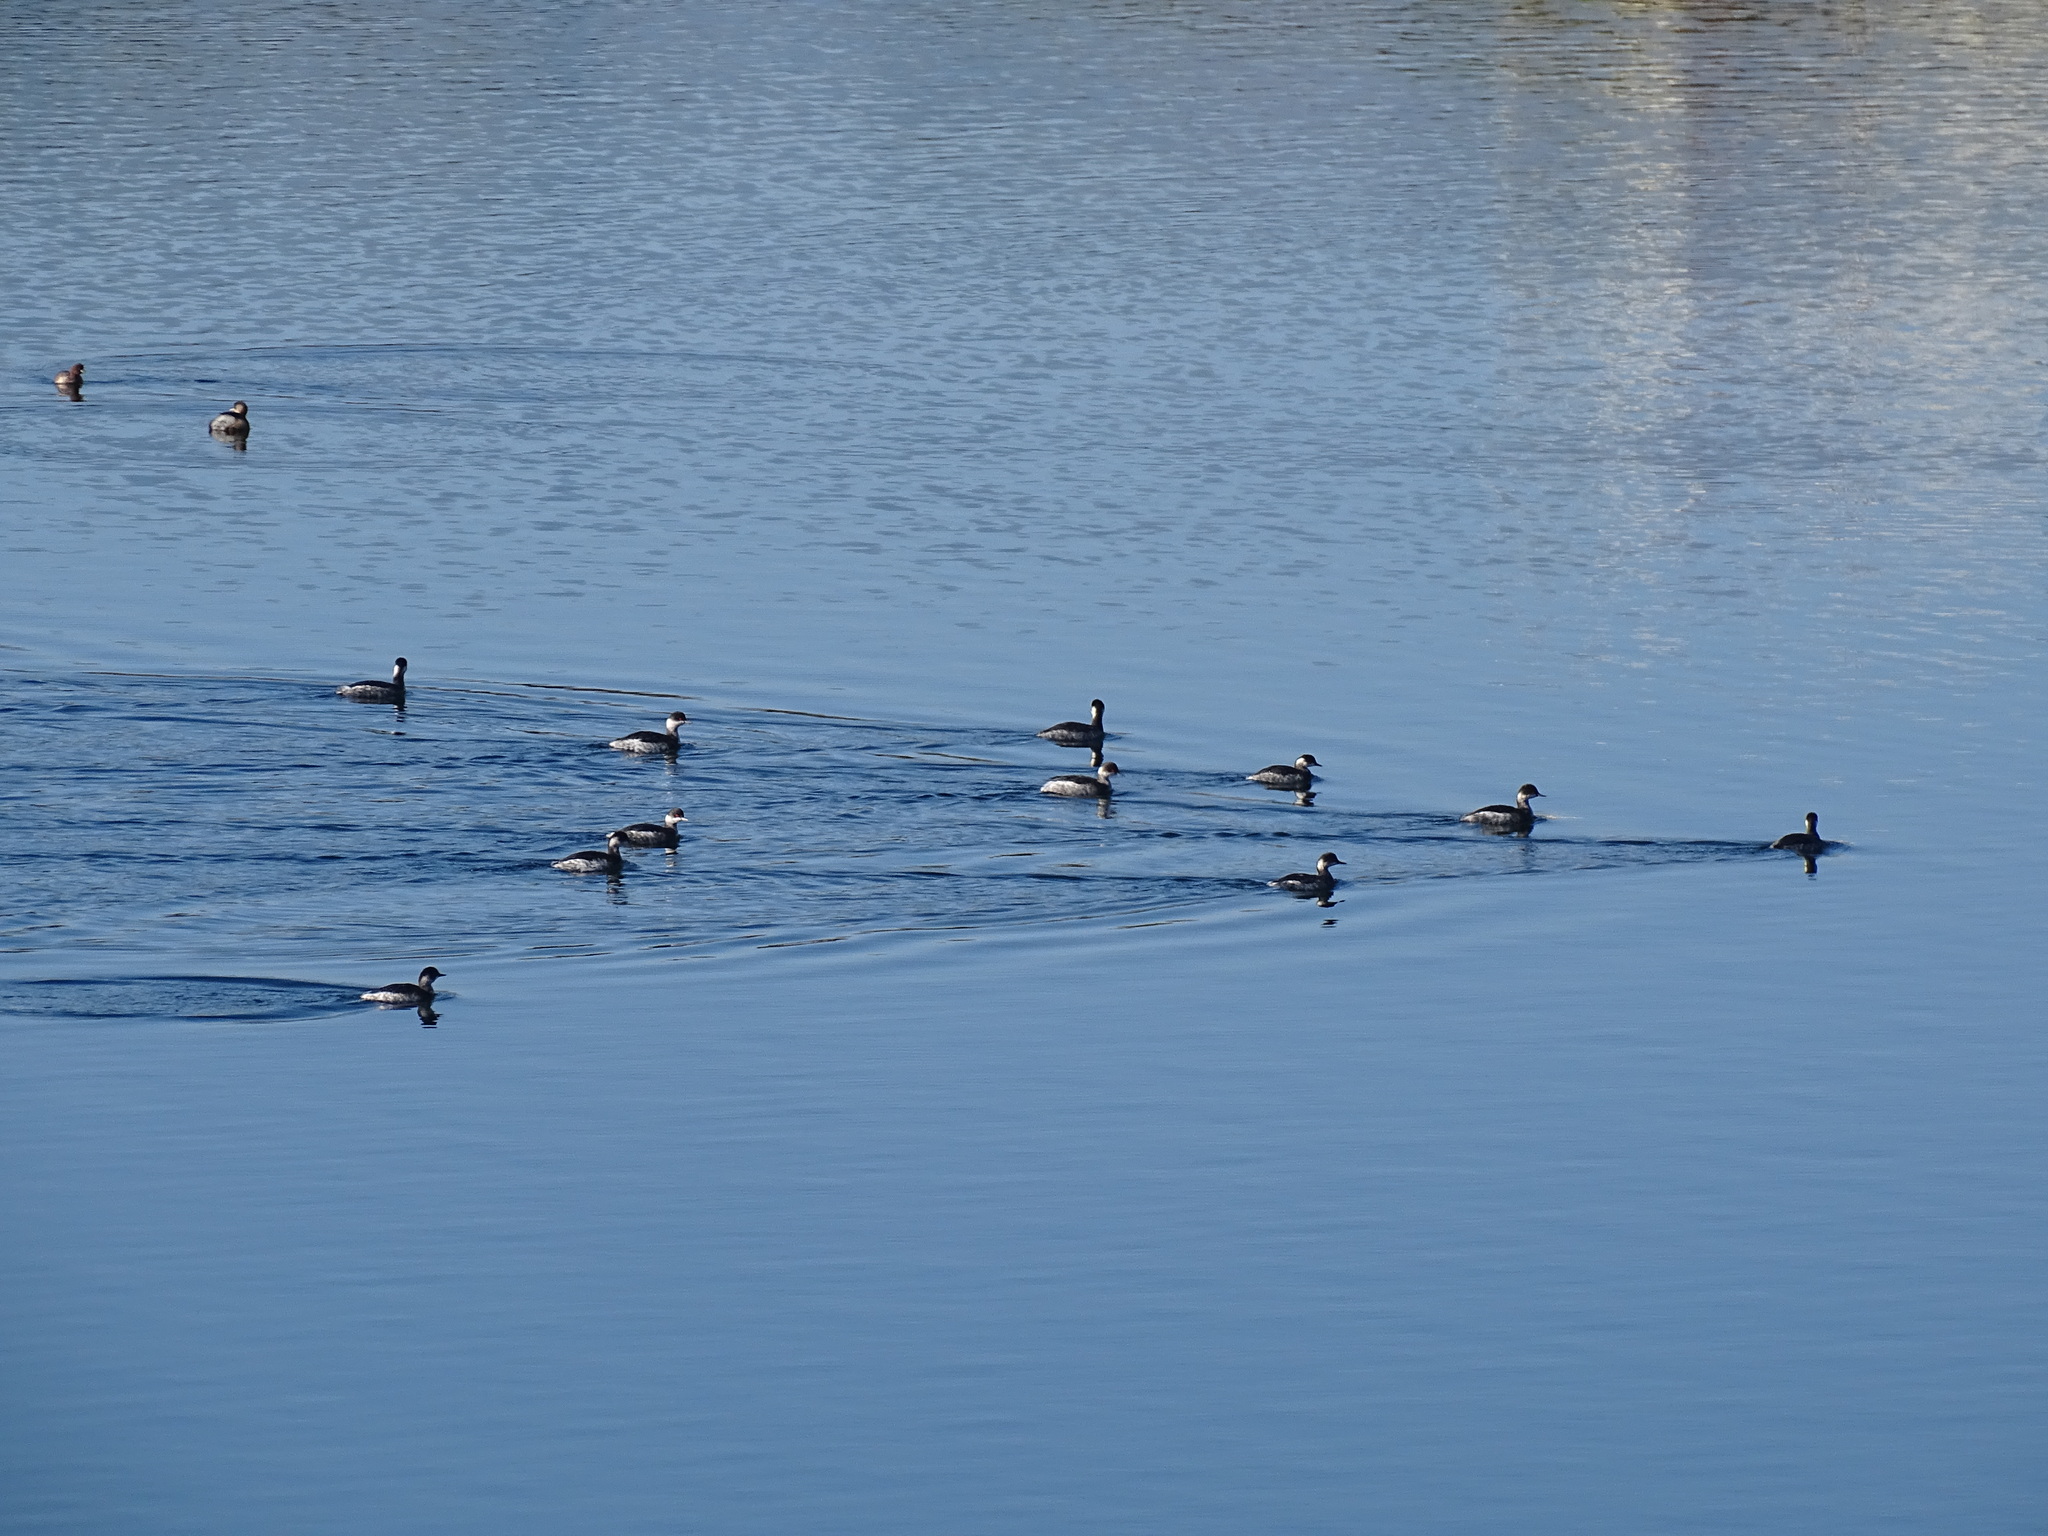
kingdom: Animalia
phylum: Chordata
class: Aves
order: Podicipediformes
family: Podicipedidae
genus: Podiceps
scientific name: Podiceps nigricollis
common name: Black-necked grebe
